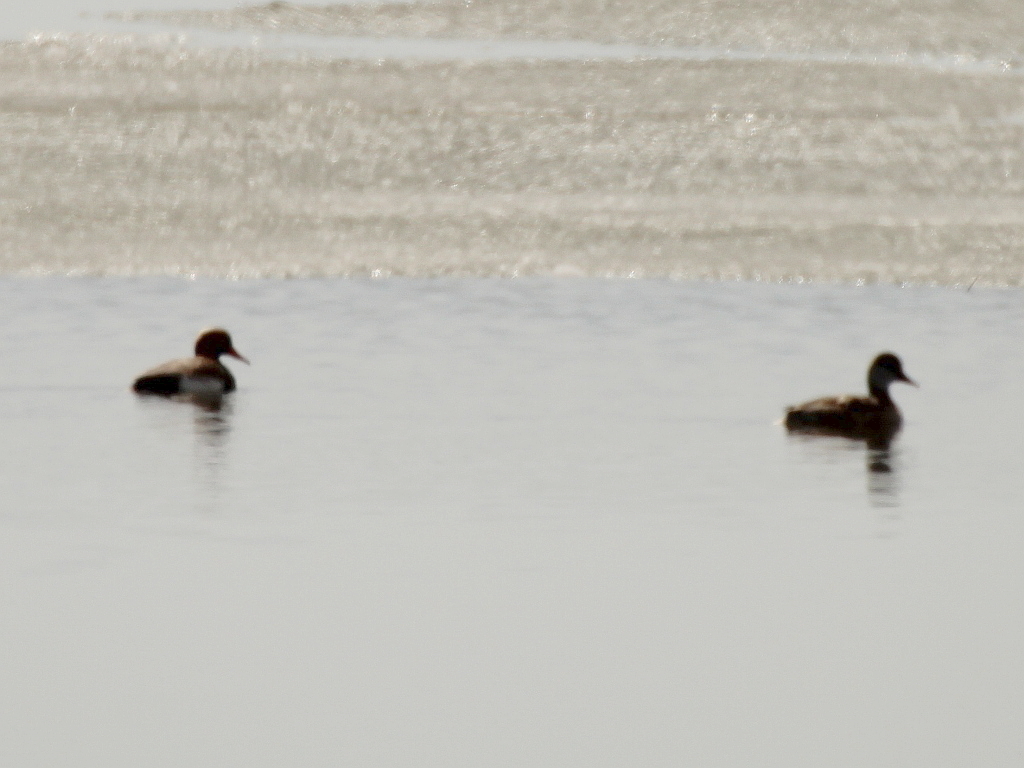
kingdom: Animalia
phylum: Chordata
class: Aves
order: Anseriformes
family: Anatidae
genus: Netta
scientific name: Netta rufina
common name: Red-crested pochard
